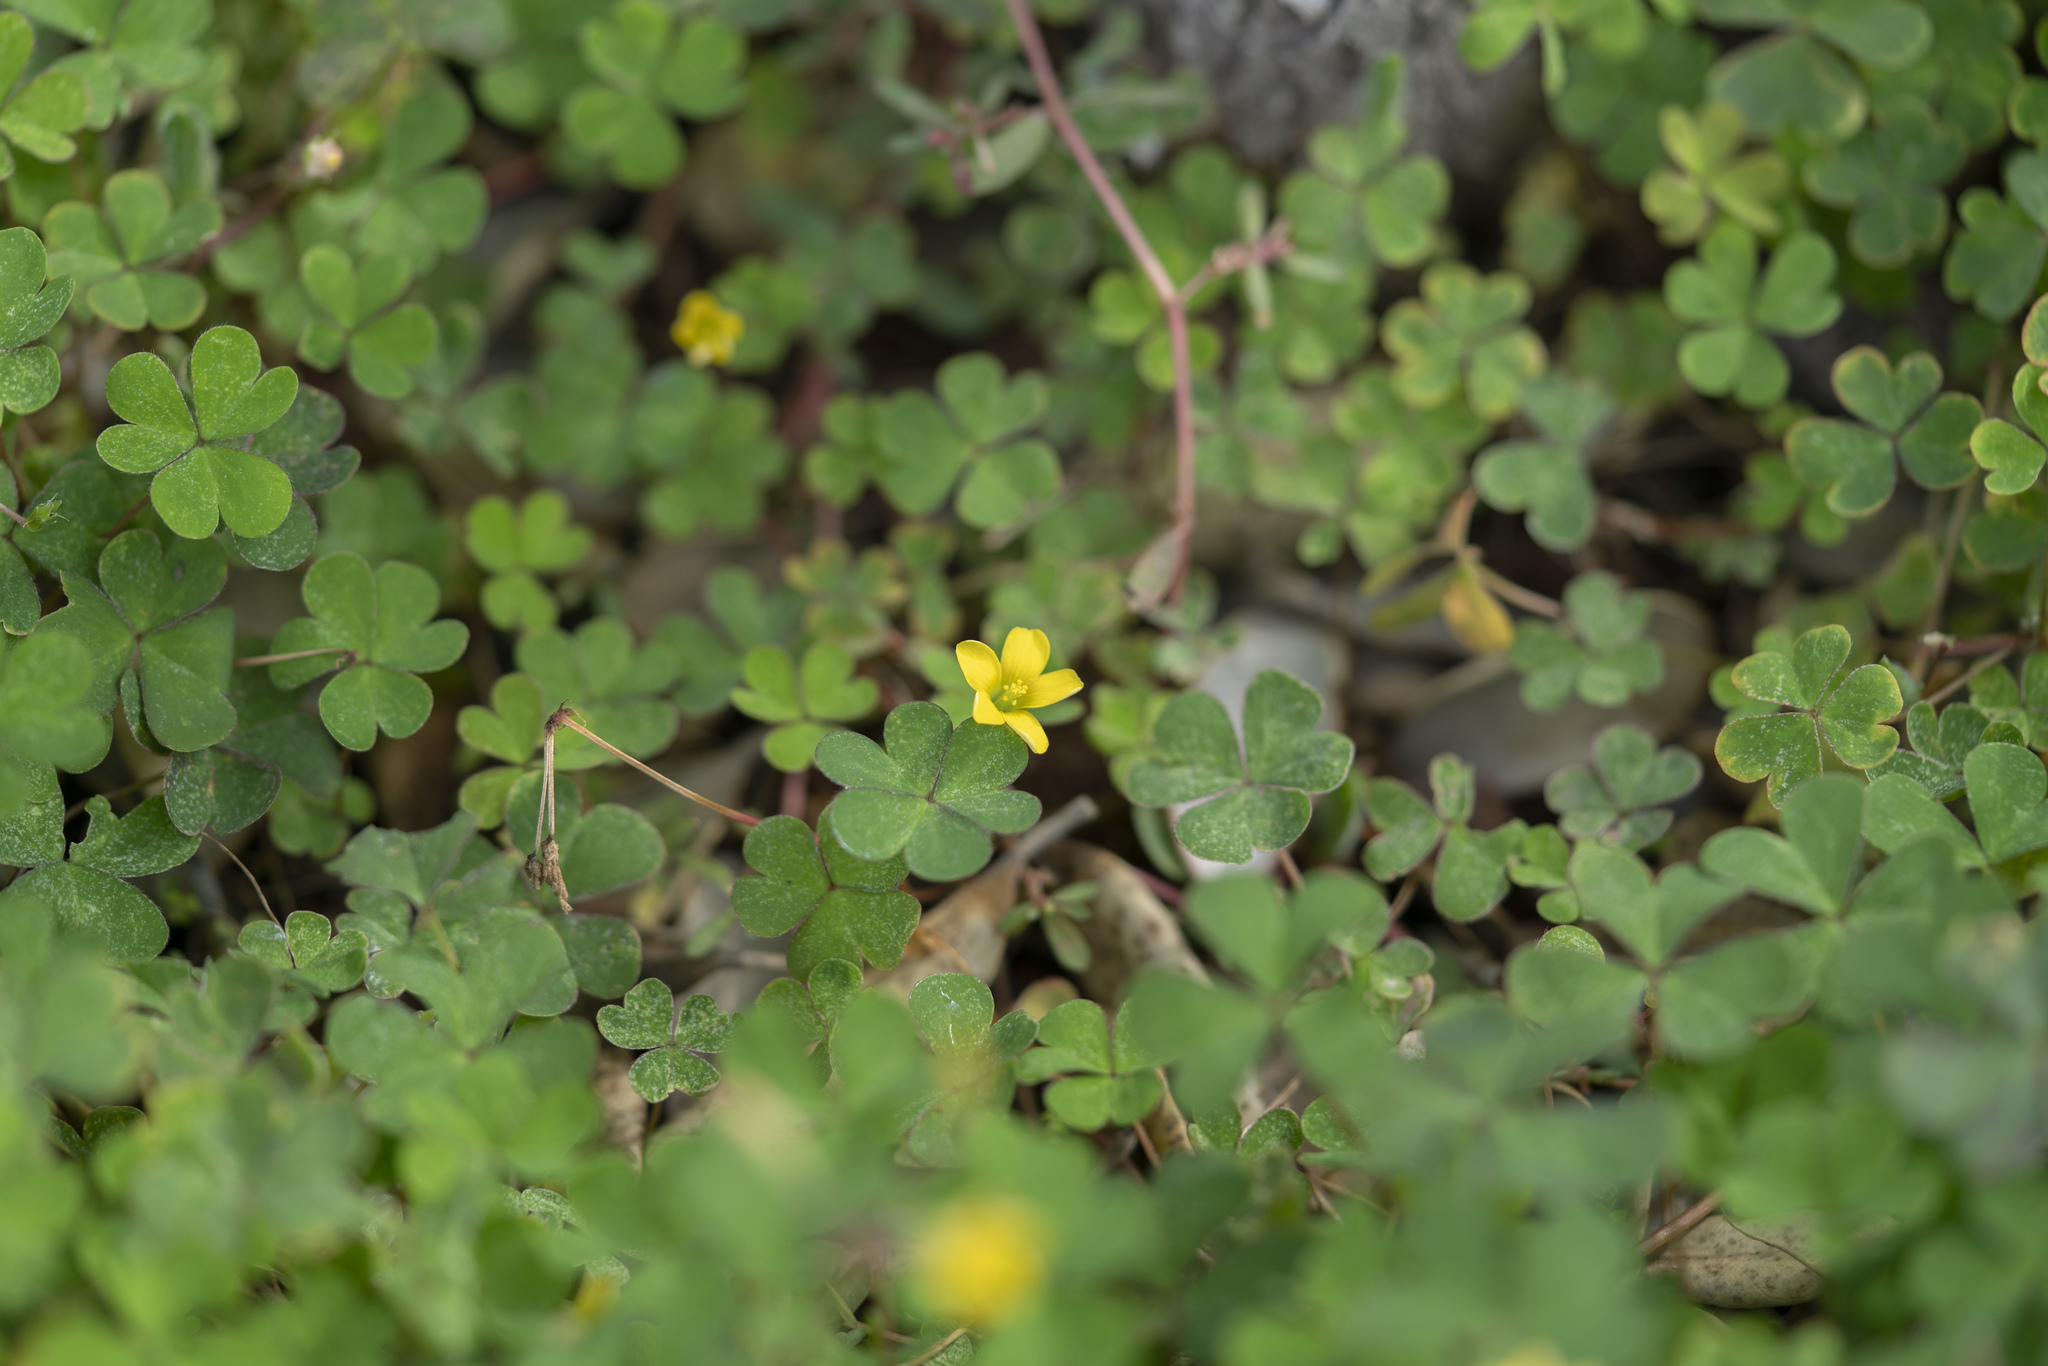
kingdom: Plantae
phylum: Tracheophyta
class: Magnoliopsida
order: Oxalidales
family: Oxalidaceae
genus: Oxalis
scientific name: Oxalis corniculata
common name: Procumbent yellow-sorrel
